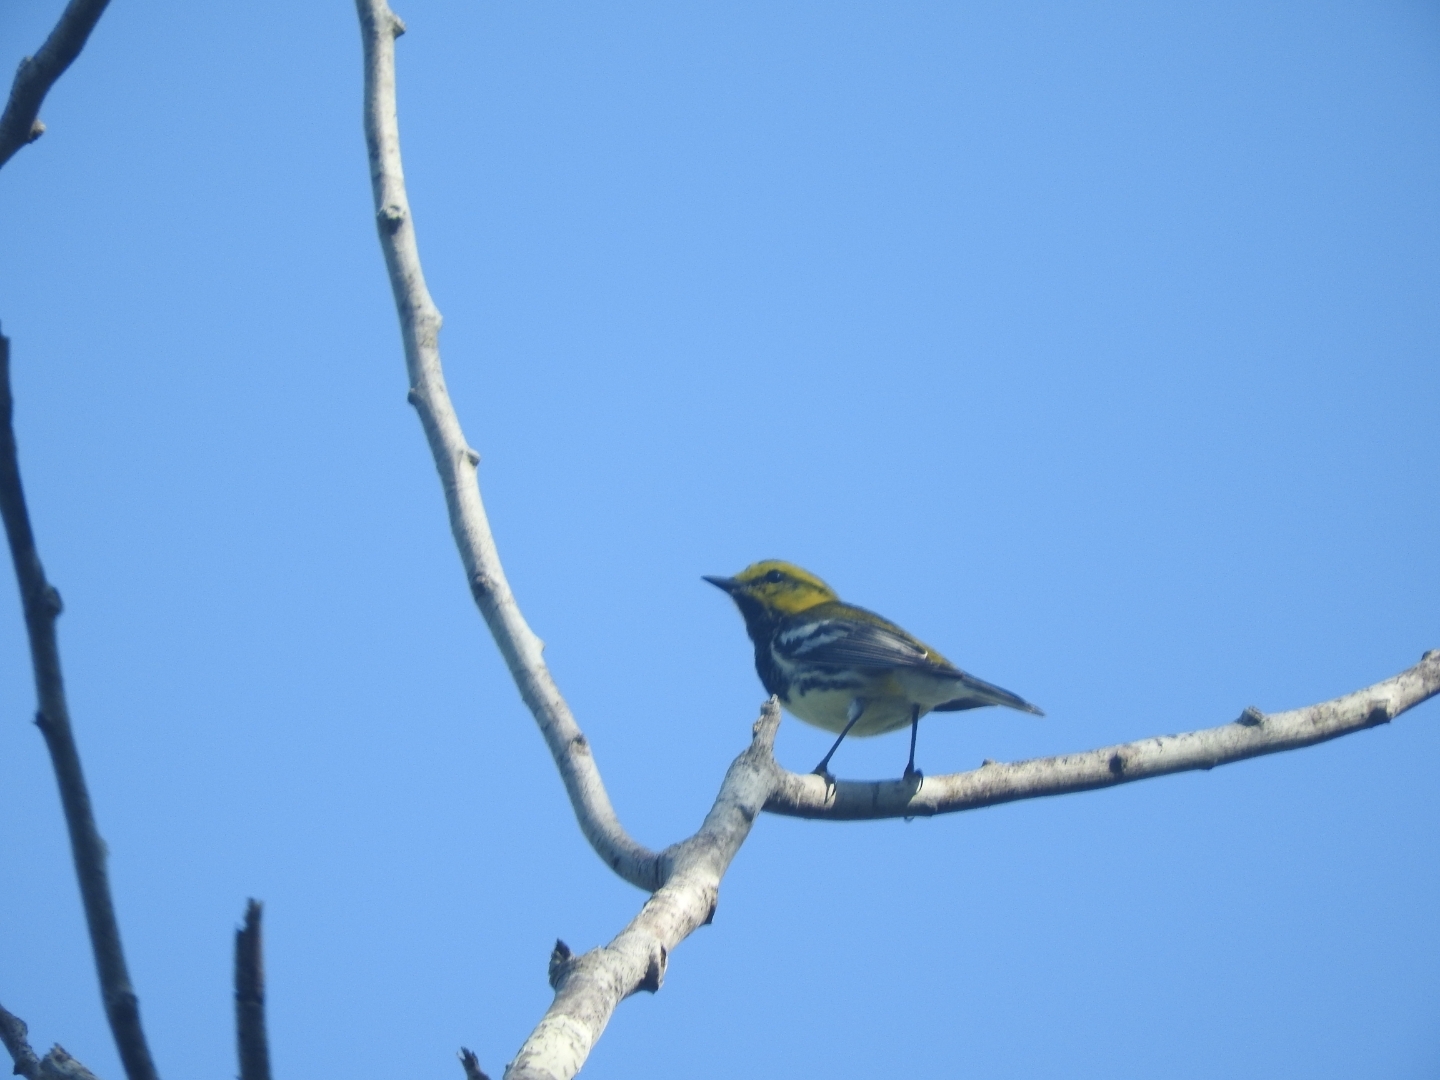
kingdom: Animalia
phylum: Chordata
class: Aves
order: Passeriformes
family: Parulidae
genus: Setophaga
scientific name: Setophaga virens
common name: Black-throated green warbler
